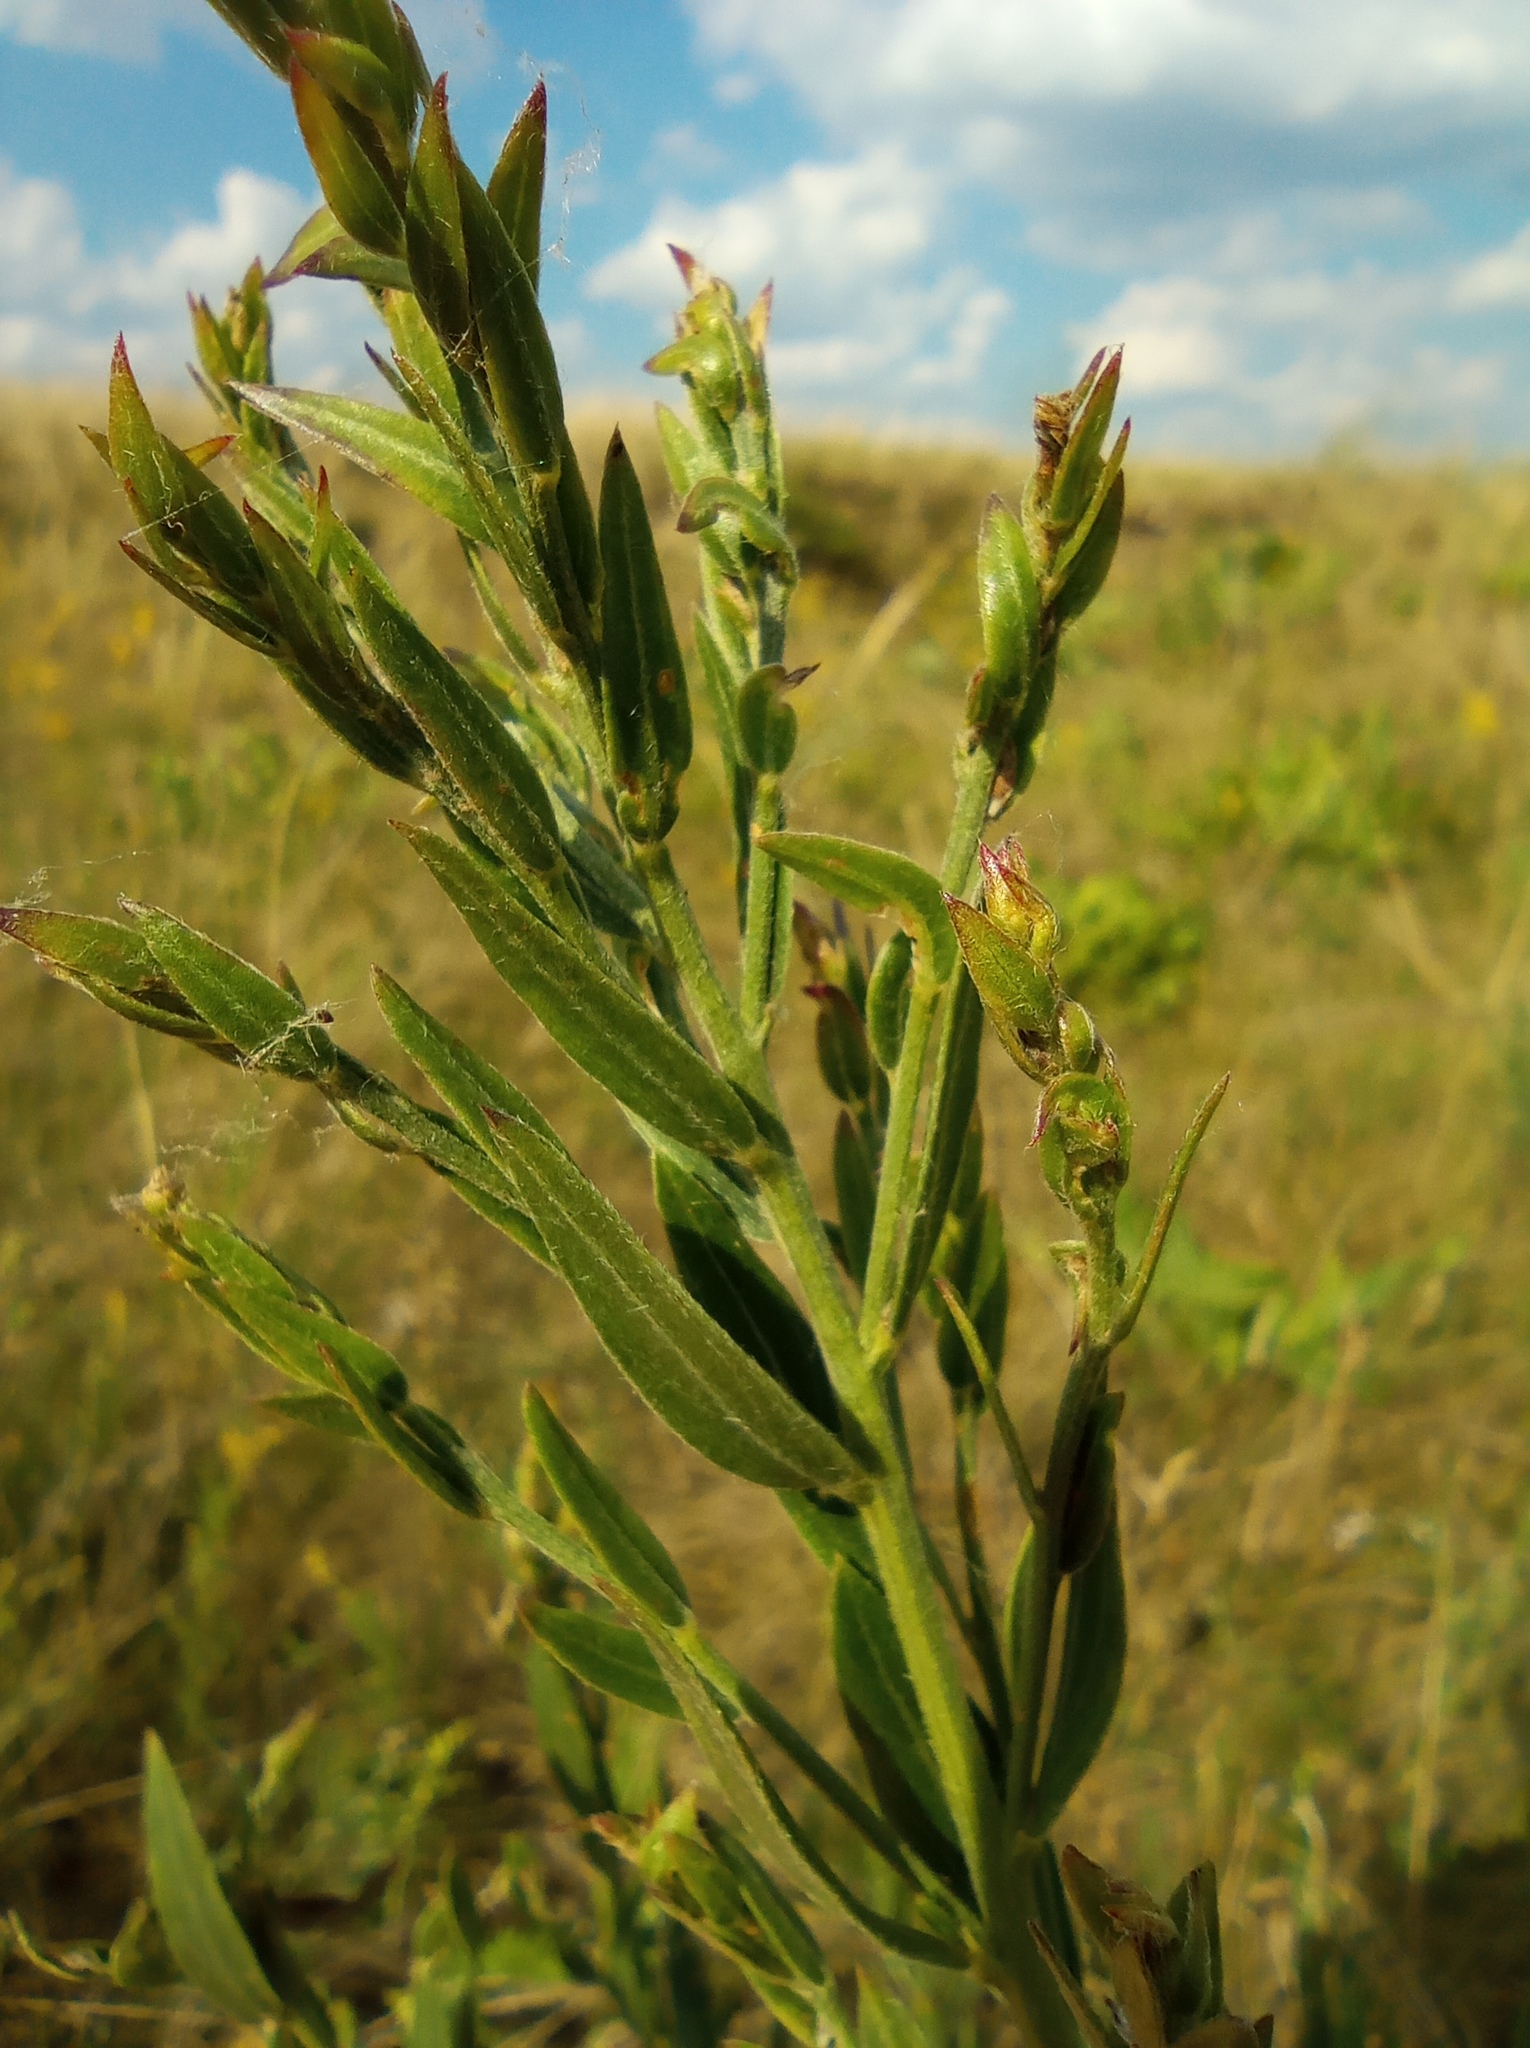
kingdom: Plantae
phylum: Tracheophyta
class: Magnoliopsida
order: Fabales
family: Fabaceae
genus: Genista
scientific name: Genista tinctoria
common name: Dyer's greenweed
